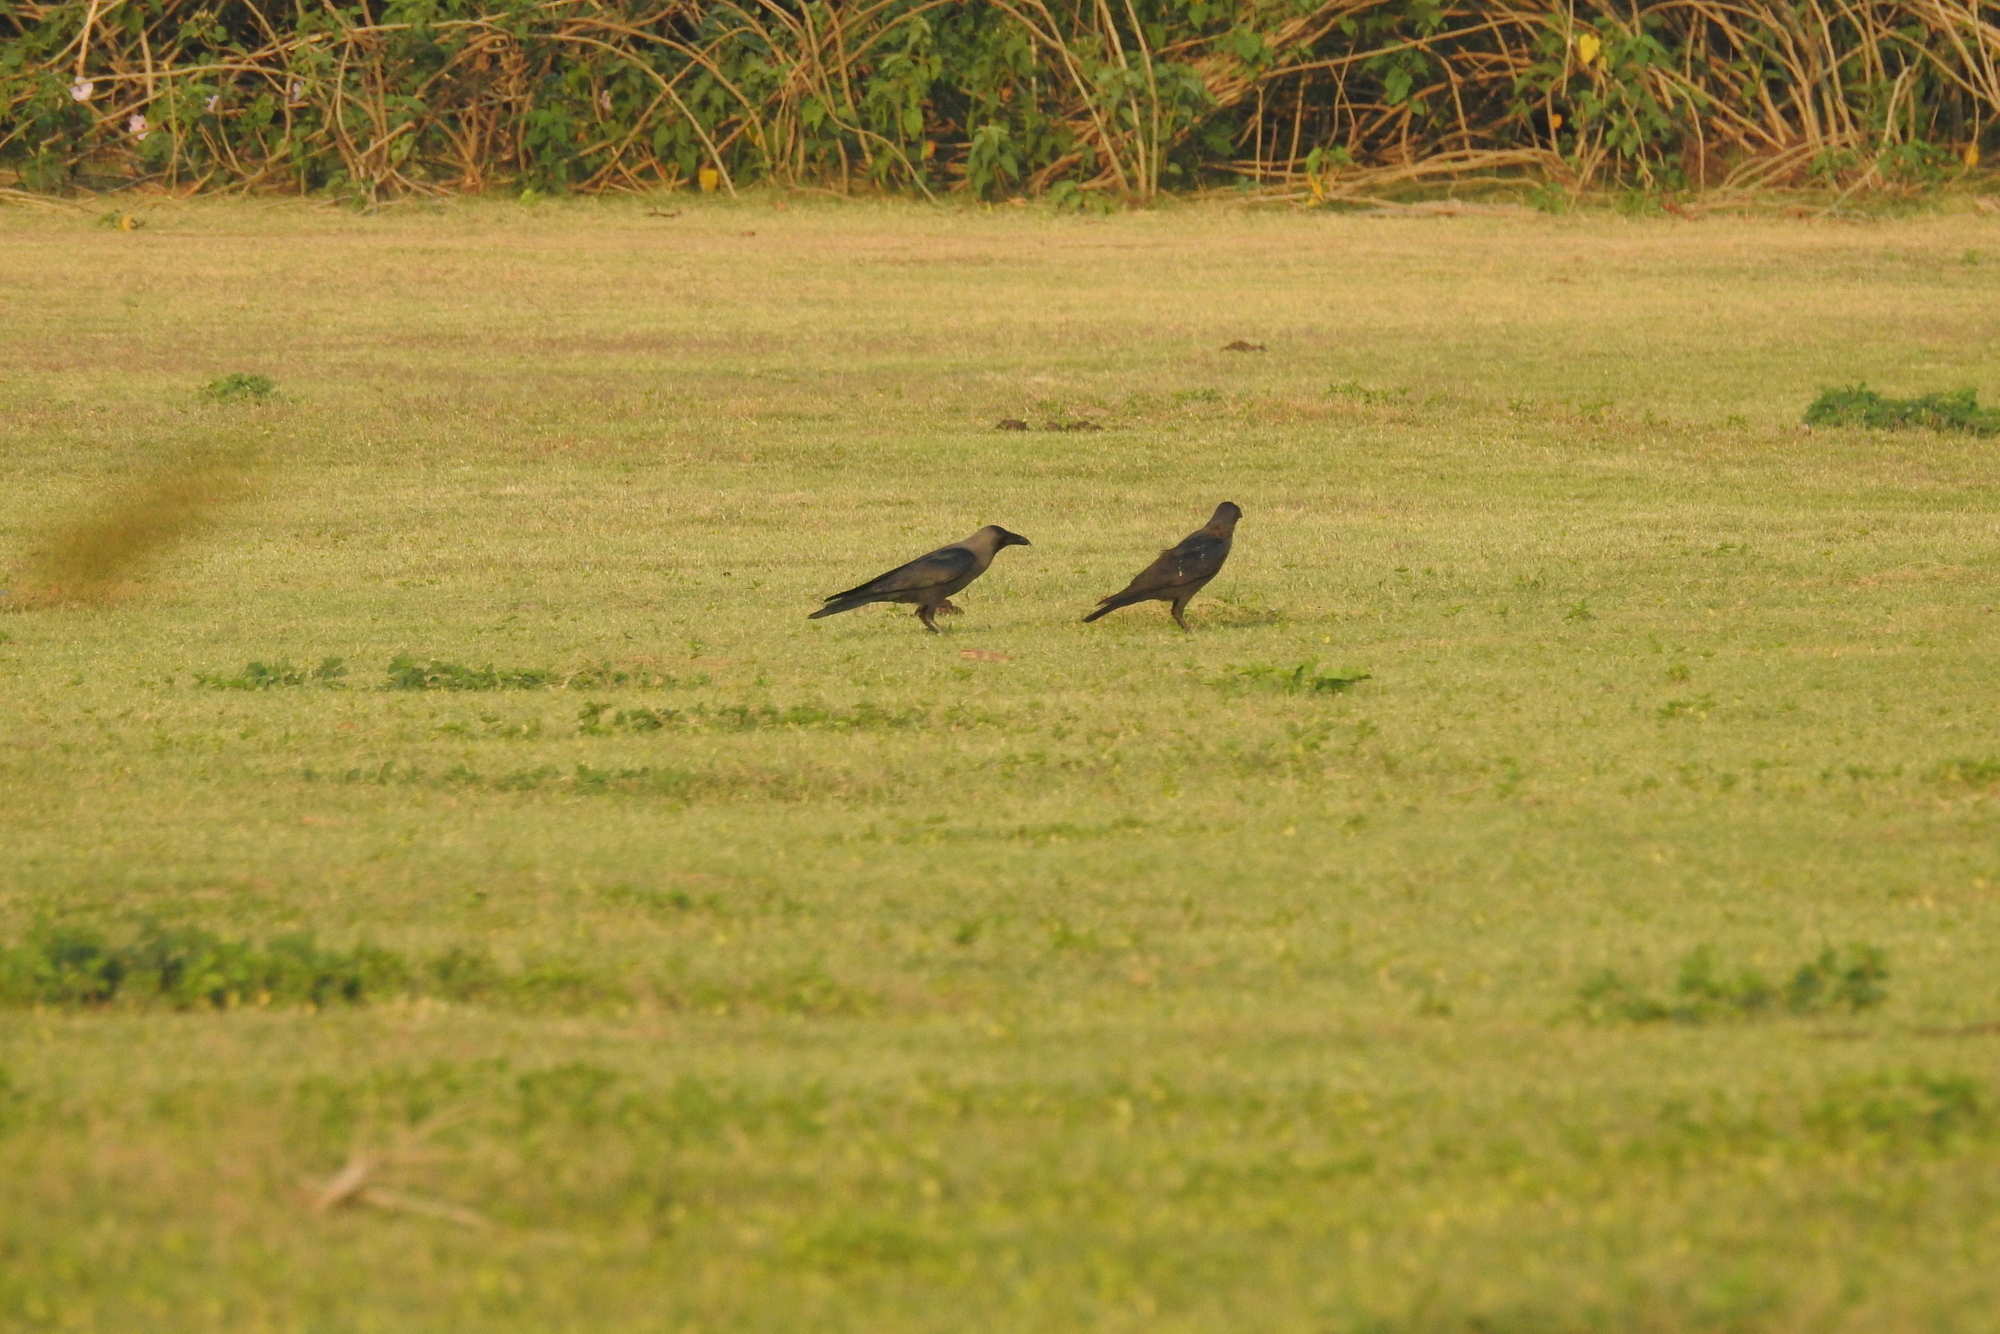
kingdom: Animalia
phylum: Chordata
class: Aves
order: Passeriformes
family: Corvidae
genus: Corvus
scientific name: Corvus splendens
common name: House crow
